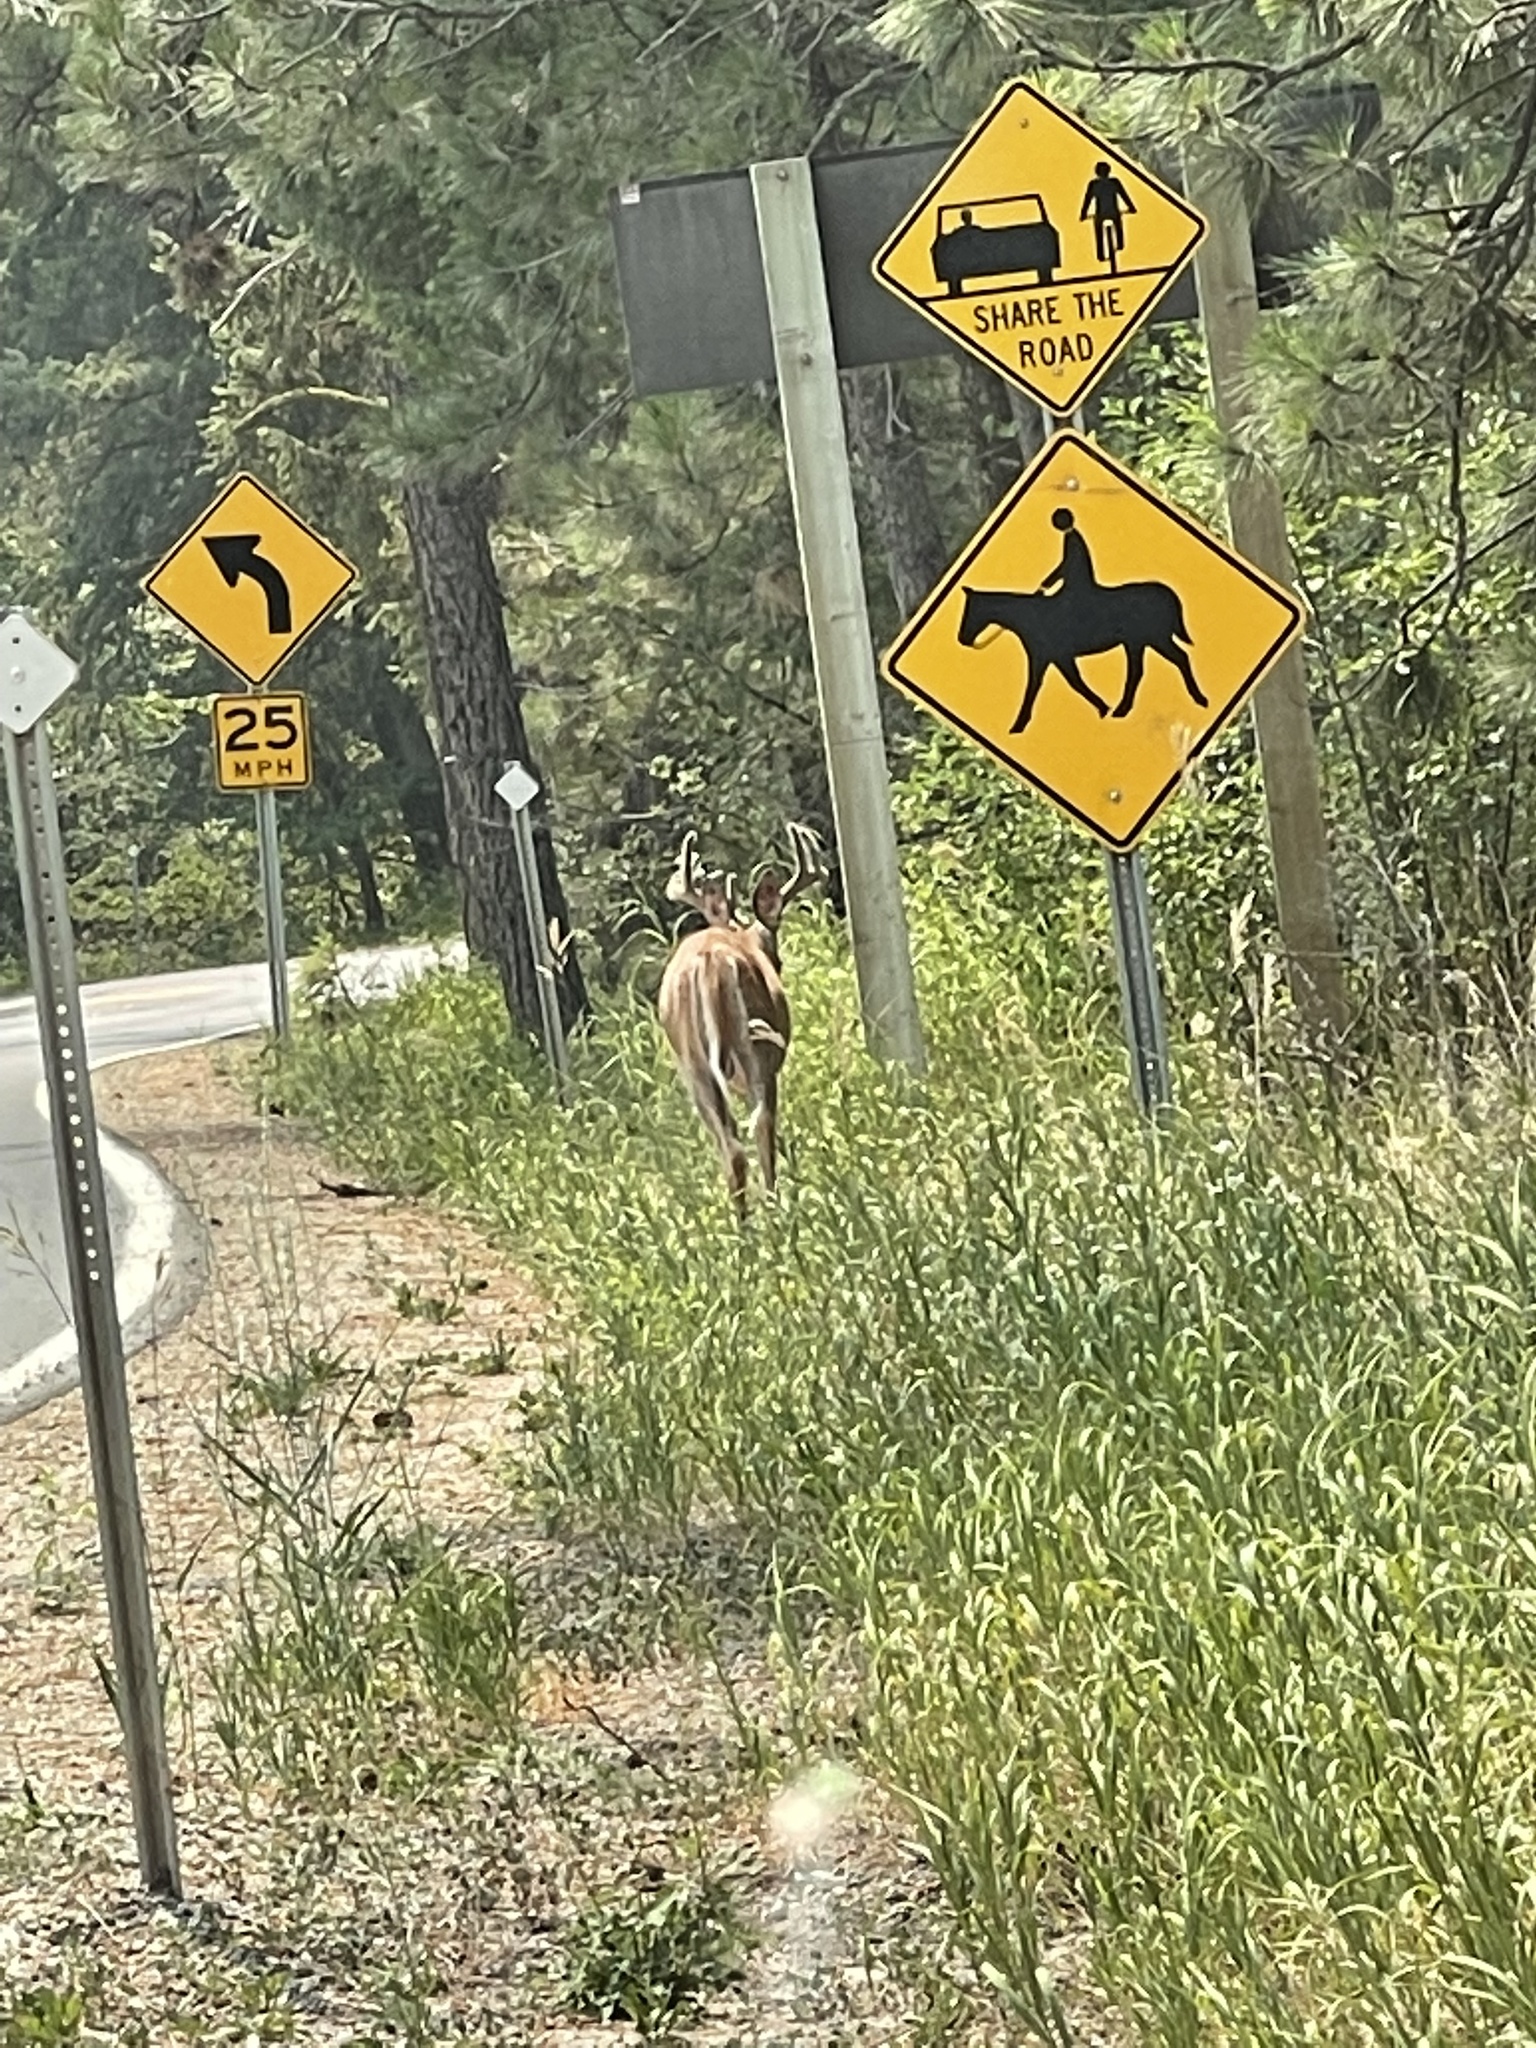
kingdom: Animalia
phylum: Chordata
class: Mammalia
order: Artiodactyla
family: Cervidae
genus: Odocoileus
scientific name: Odocoileus virginianus
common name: White-tailed deer
